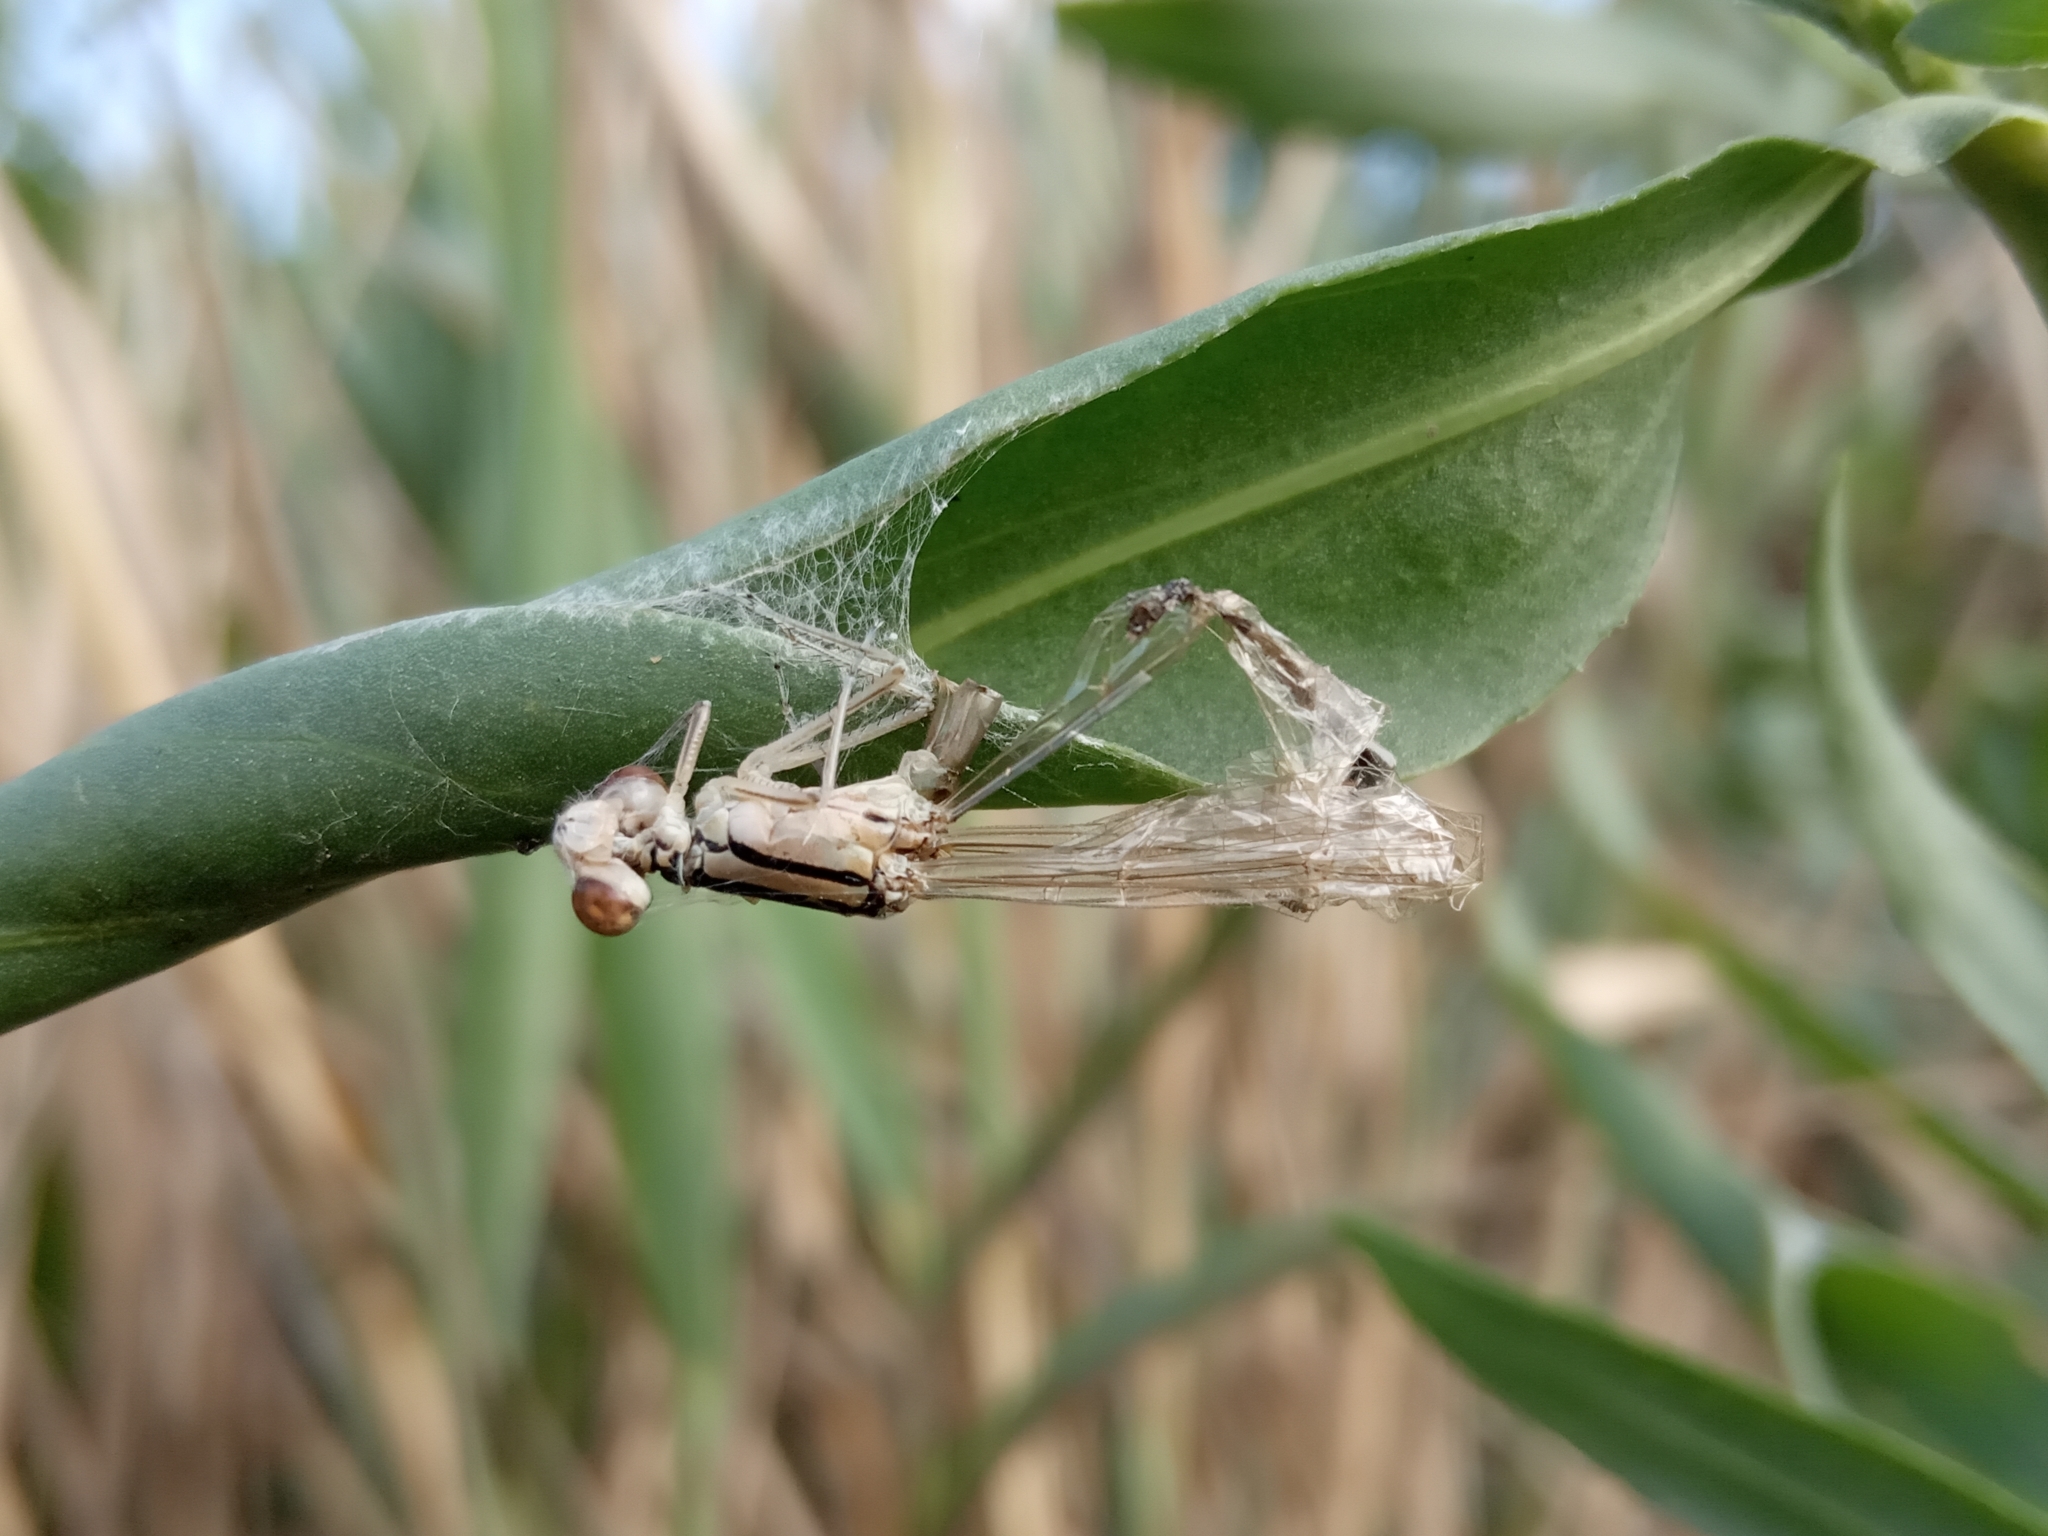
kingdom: Animalia
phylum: Arthropoda
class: Insecta
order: Odonata
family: Coenagrionidae
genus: Enallagma
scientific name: Enallagma cyathigerum
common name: Common blue damselfly
